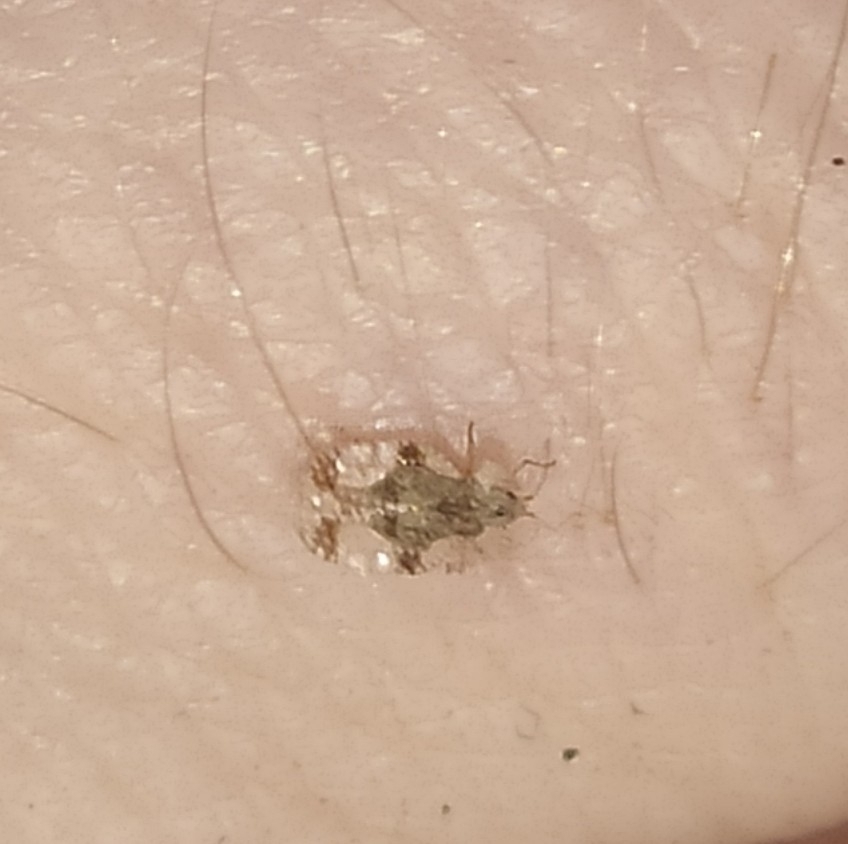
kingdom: Animalia
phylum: Arthropoda
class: Insecta
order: Hemiptera
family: Tingidae
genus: Stephanitis
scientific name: Stephanitis pyri
